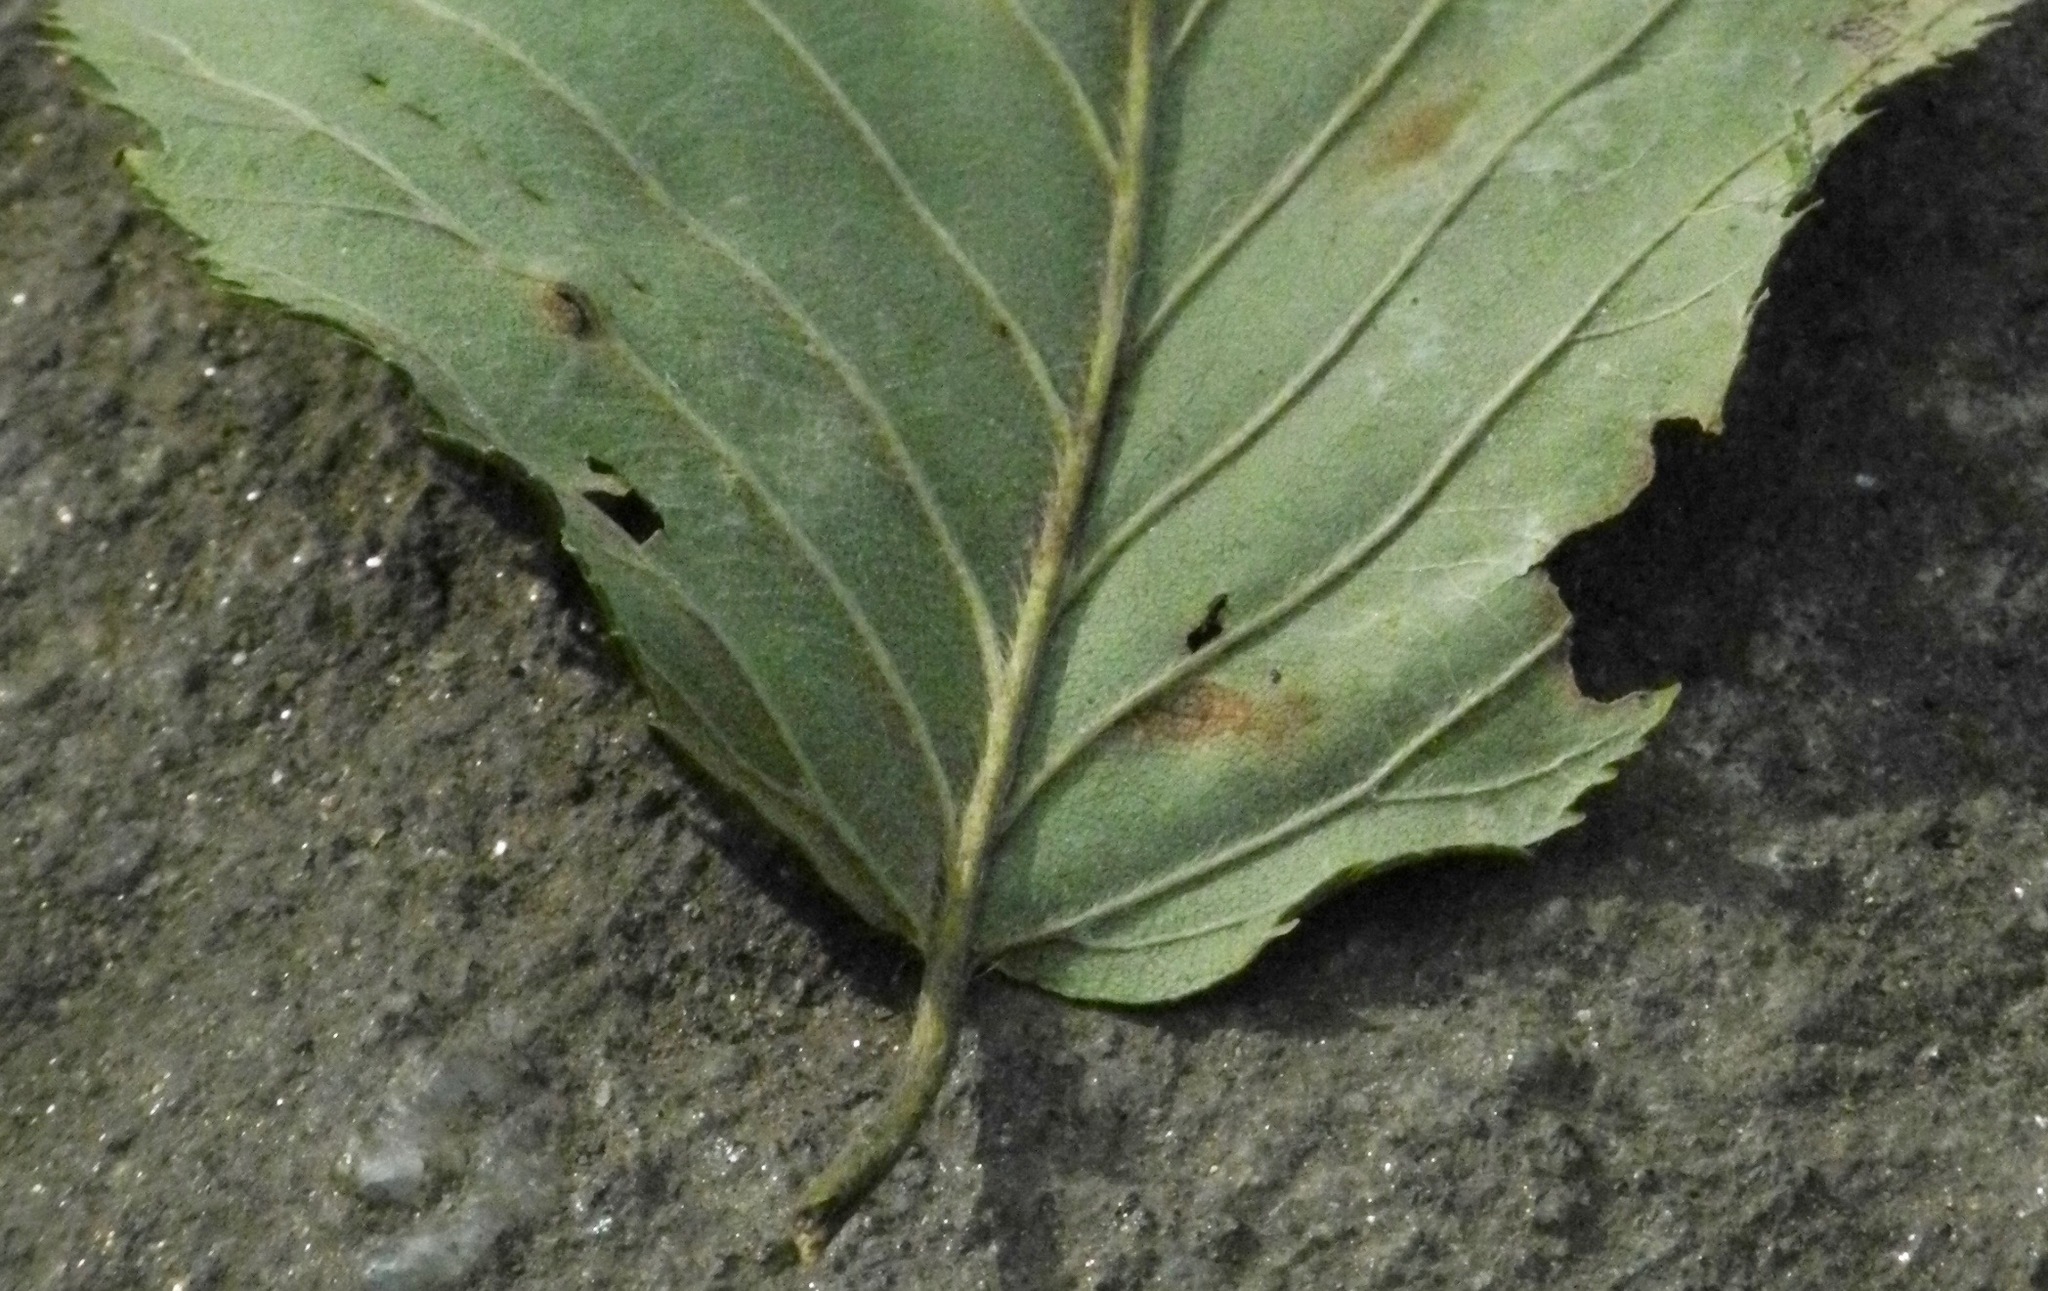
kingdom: Plantae
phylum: Tracheophyta
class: Magnoliopsida
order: Rosales
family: Ulmaceae
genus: Ulmus
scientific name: Ulmus rubra
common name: Slippery elm
